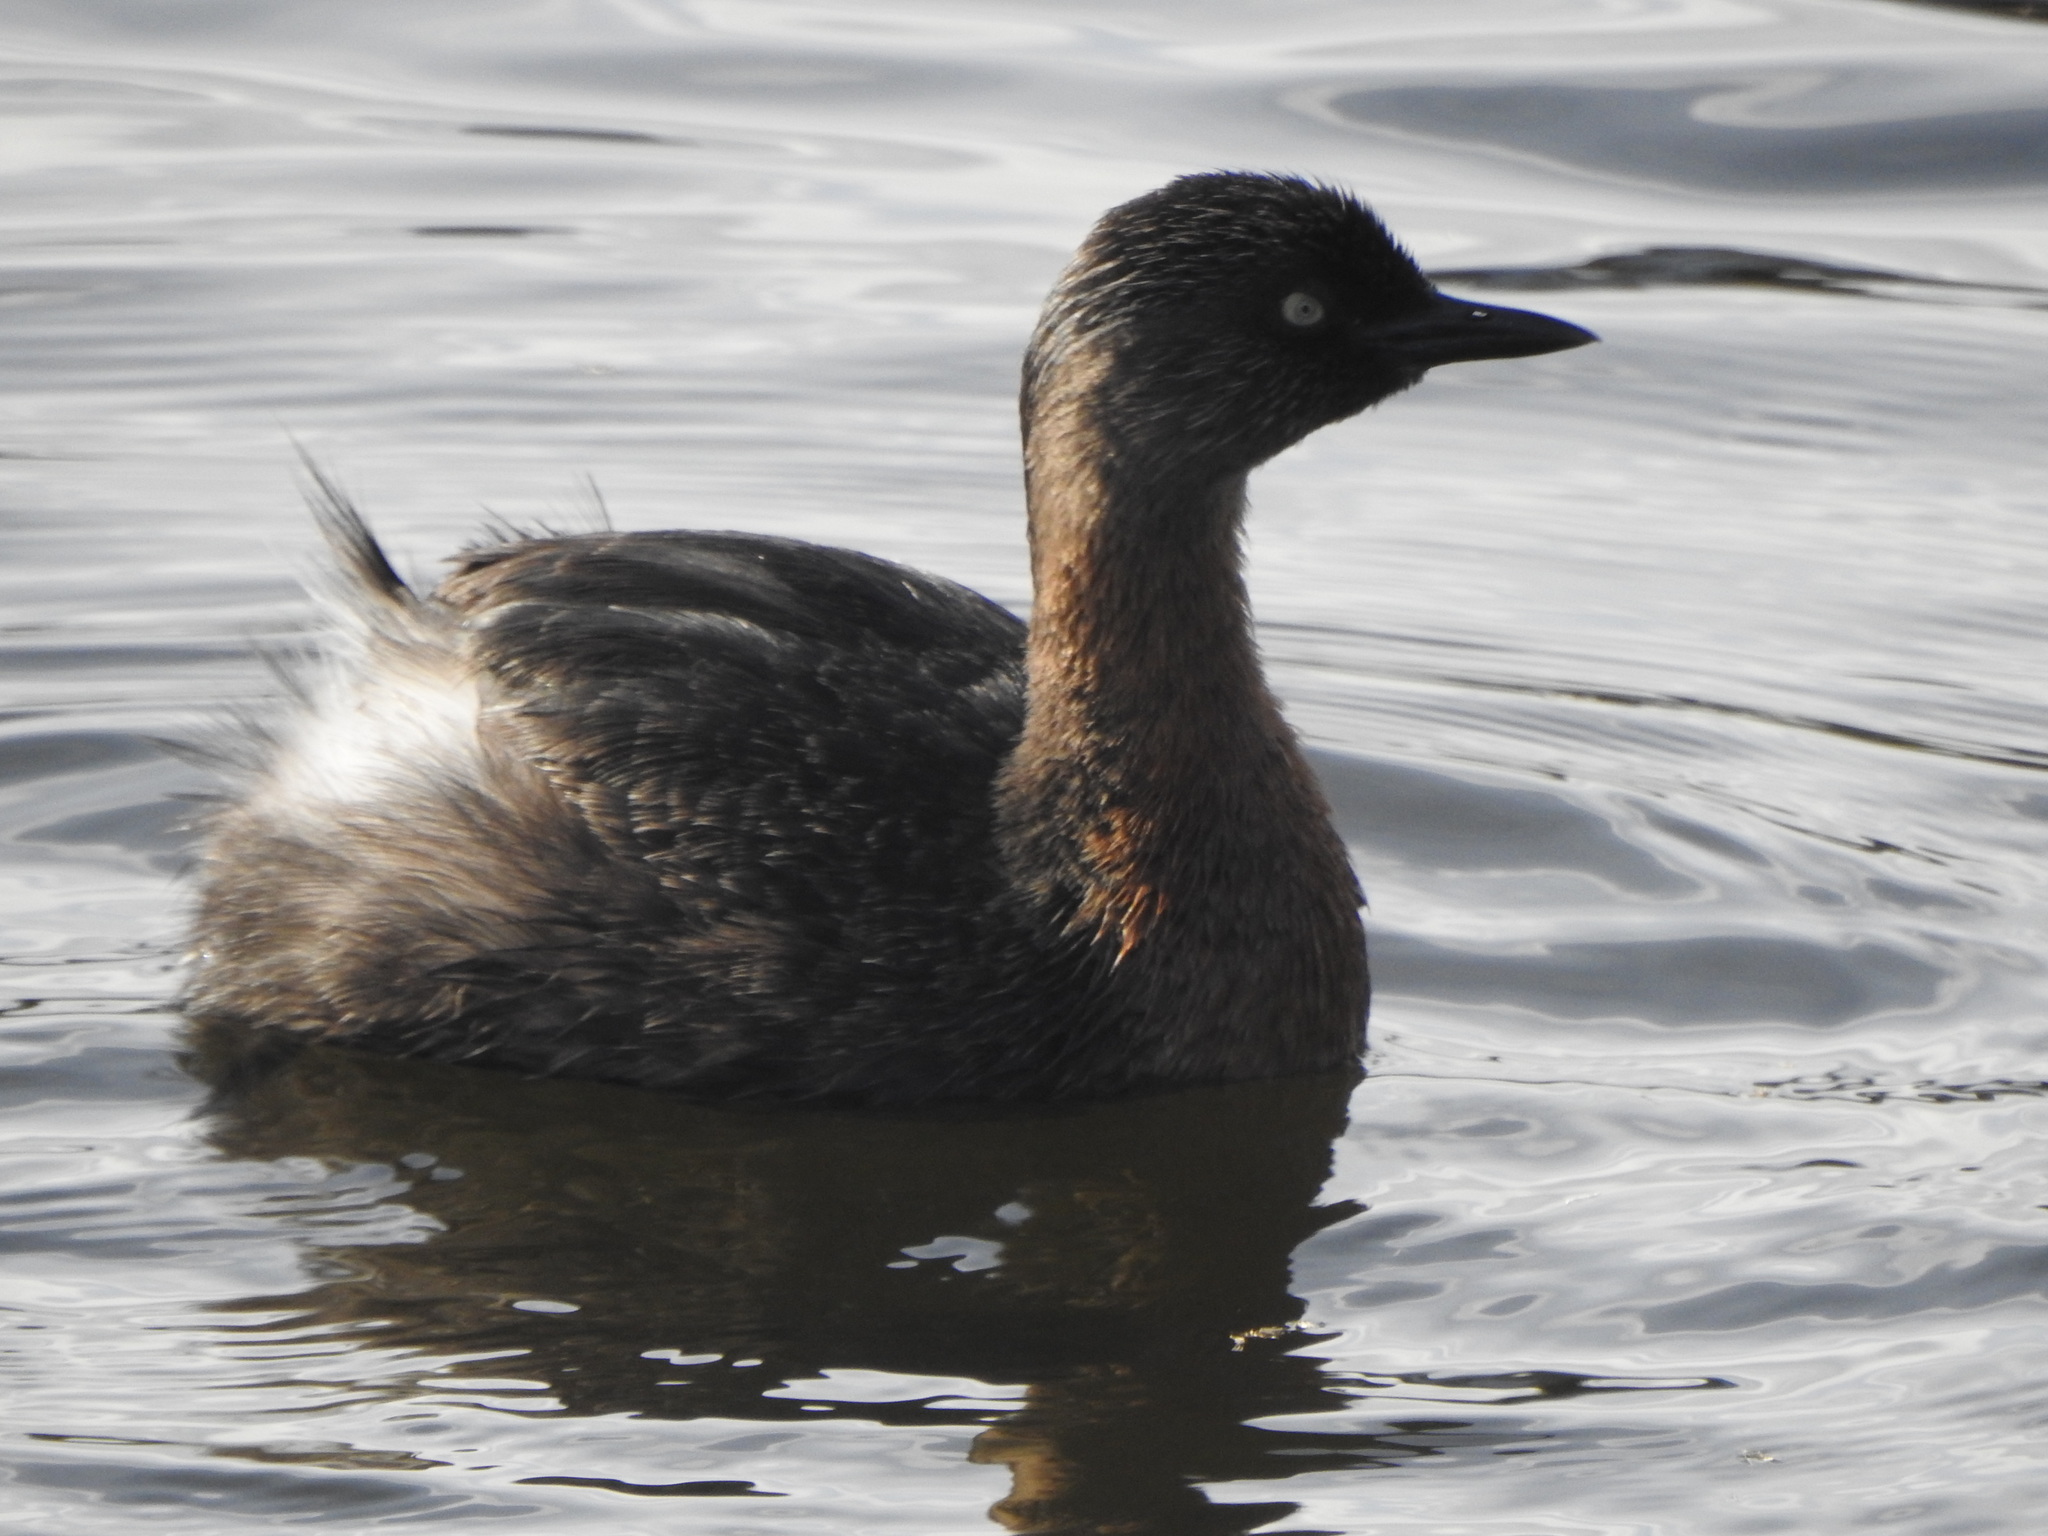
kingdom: Animalia
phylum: Chordata
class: Aves
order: Podicipediformes
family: Podicipedidae
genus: Poliocephalus
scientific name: Poliocephalus rufopectus
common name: New zealand grebe
